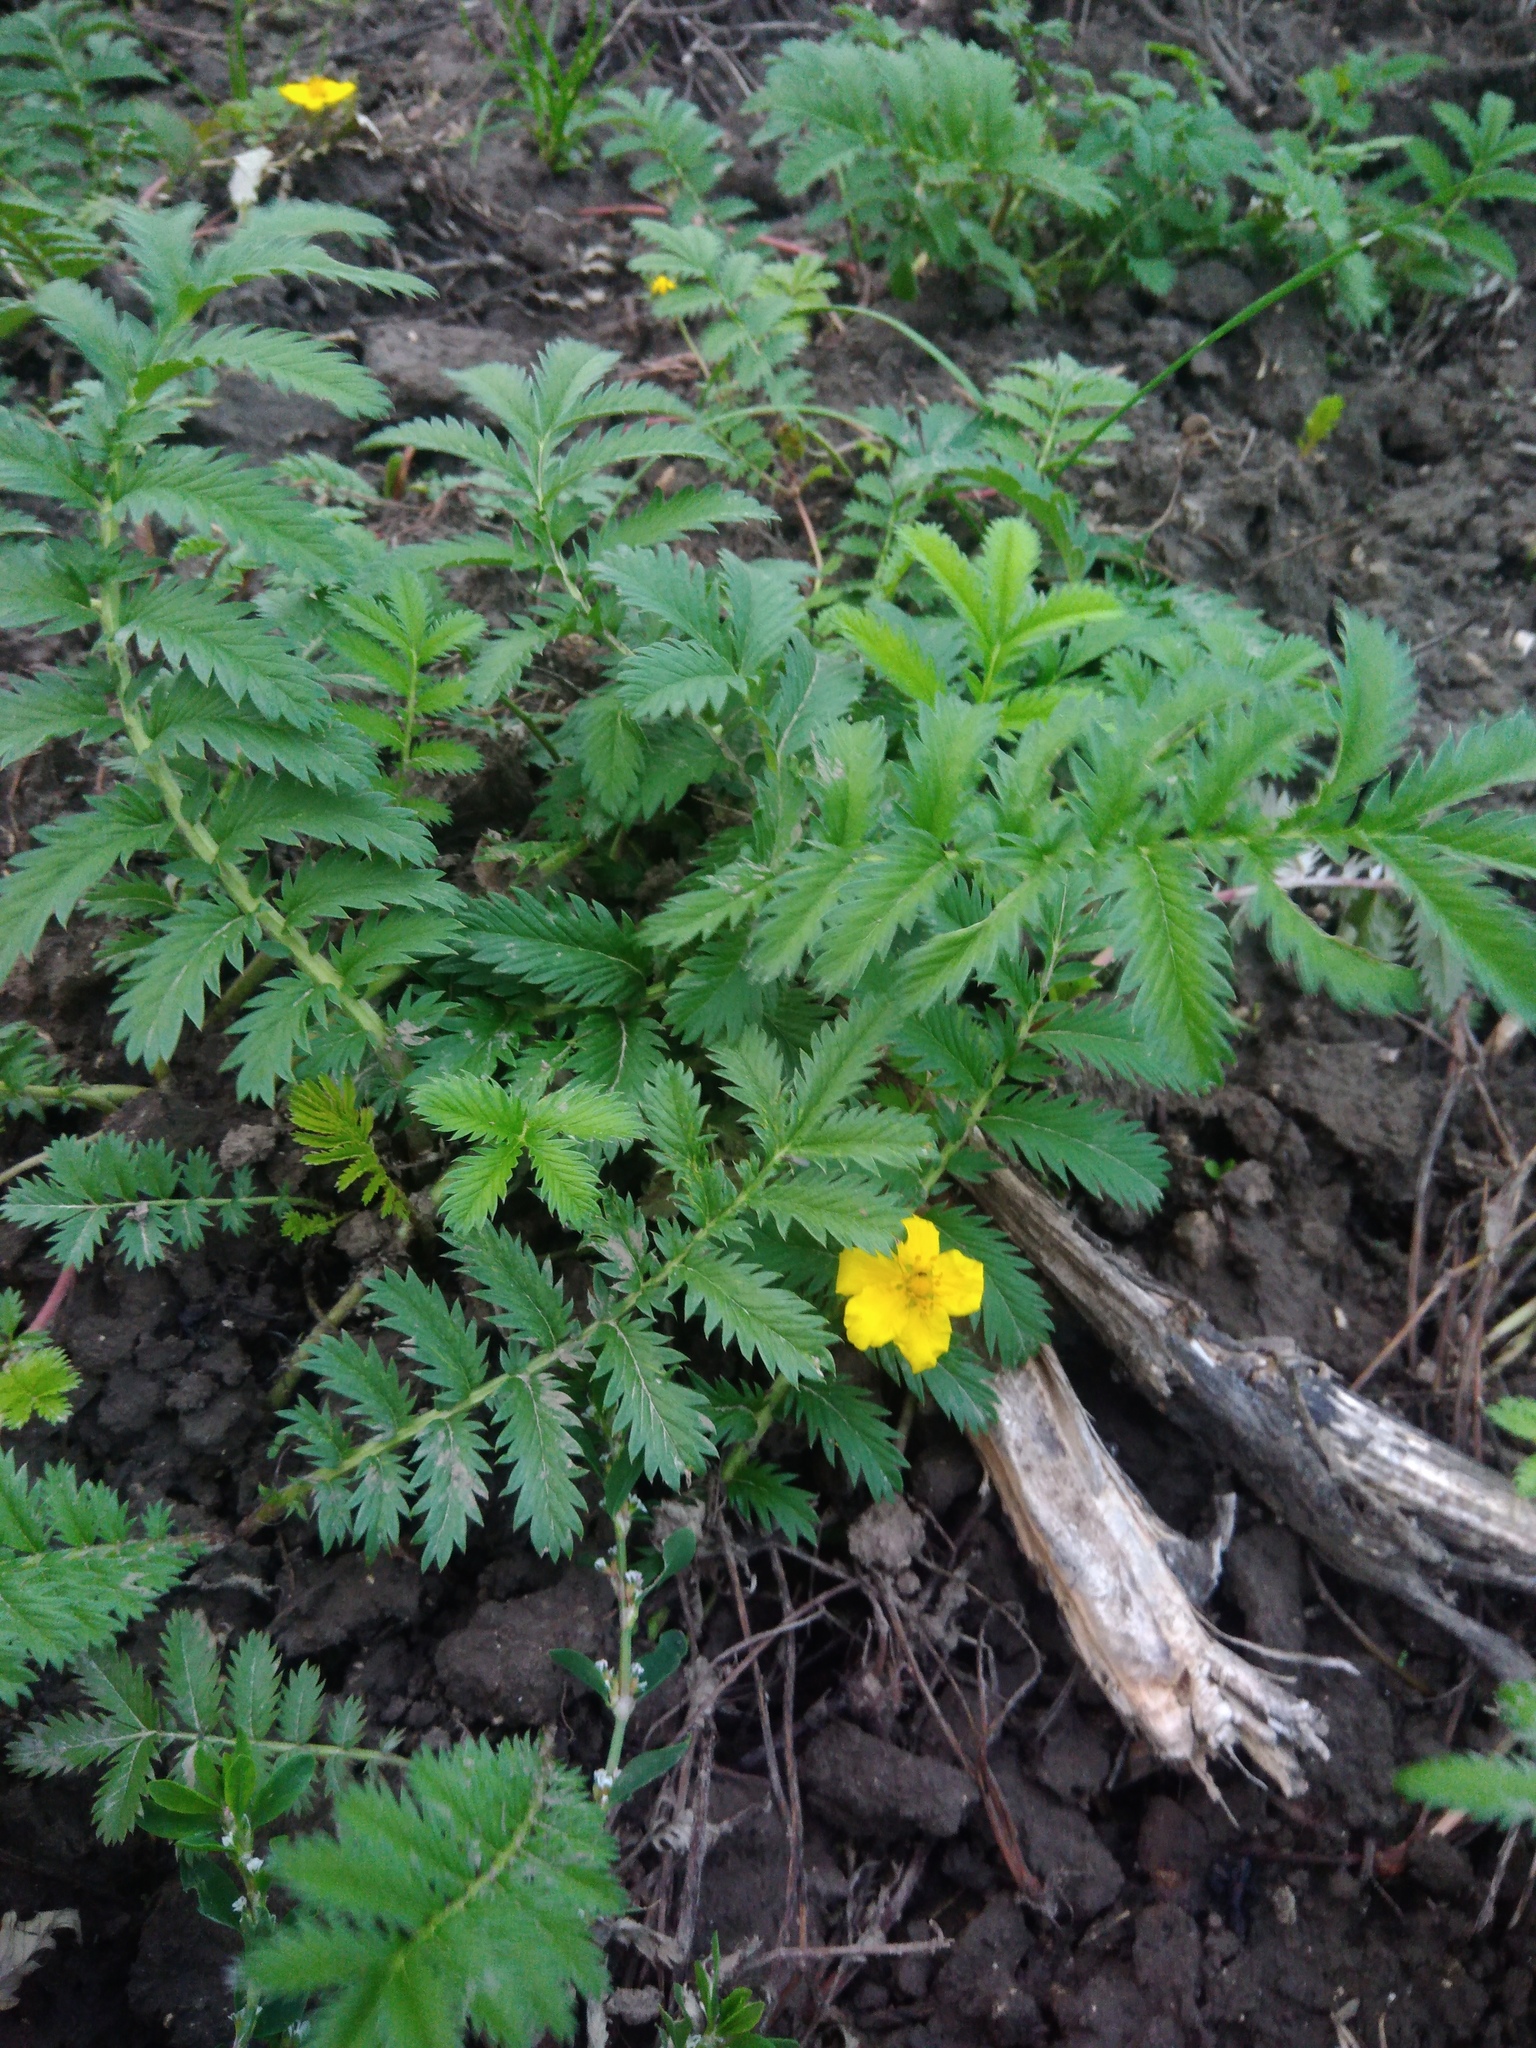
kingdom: Plantae
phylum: Tracheophyta
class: Magnoliopsida
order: Rosales
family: Rosaceae
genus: Argentina
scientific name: Argentina anserina
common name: Common silverweed
